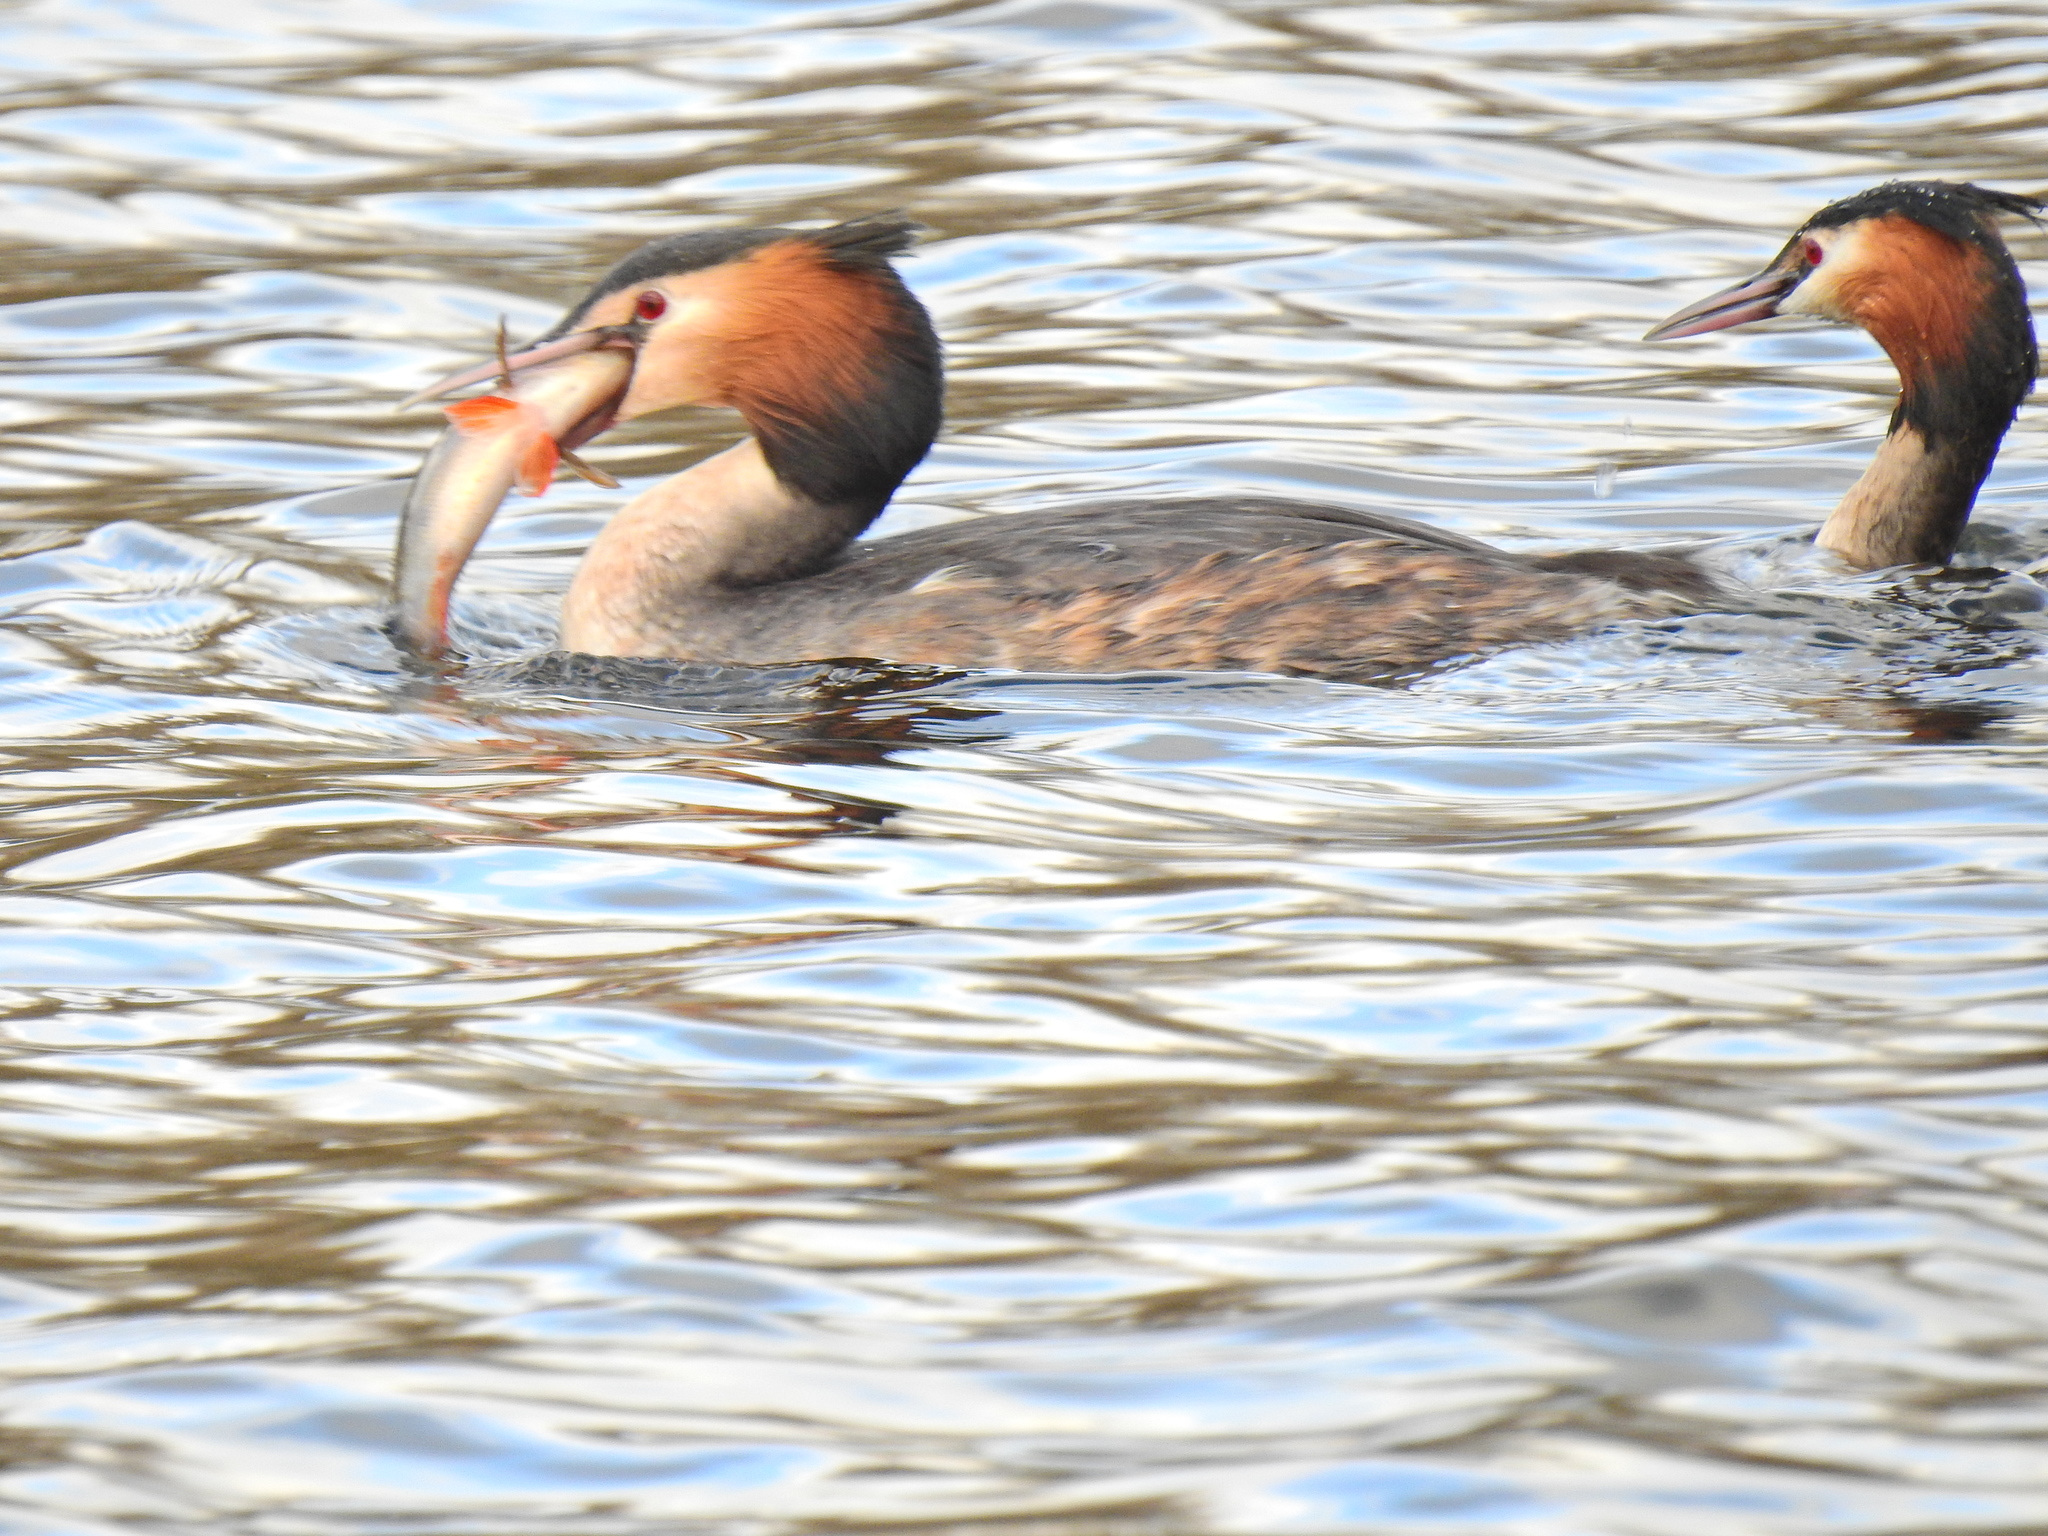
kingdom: Animalia
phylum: Chordata
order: Perciformes
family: Percidae
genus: Perca
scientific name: Perca fluviatilis
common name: Perch
